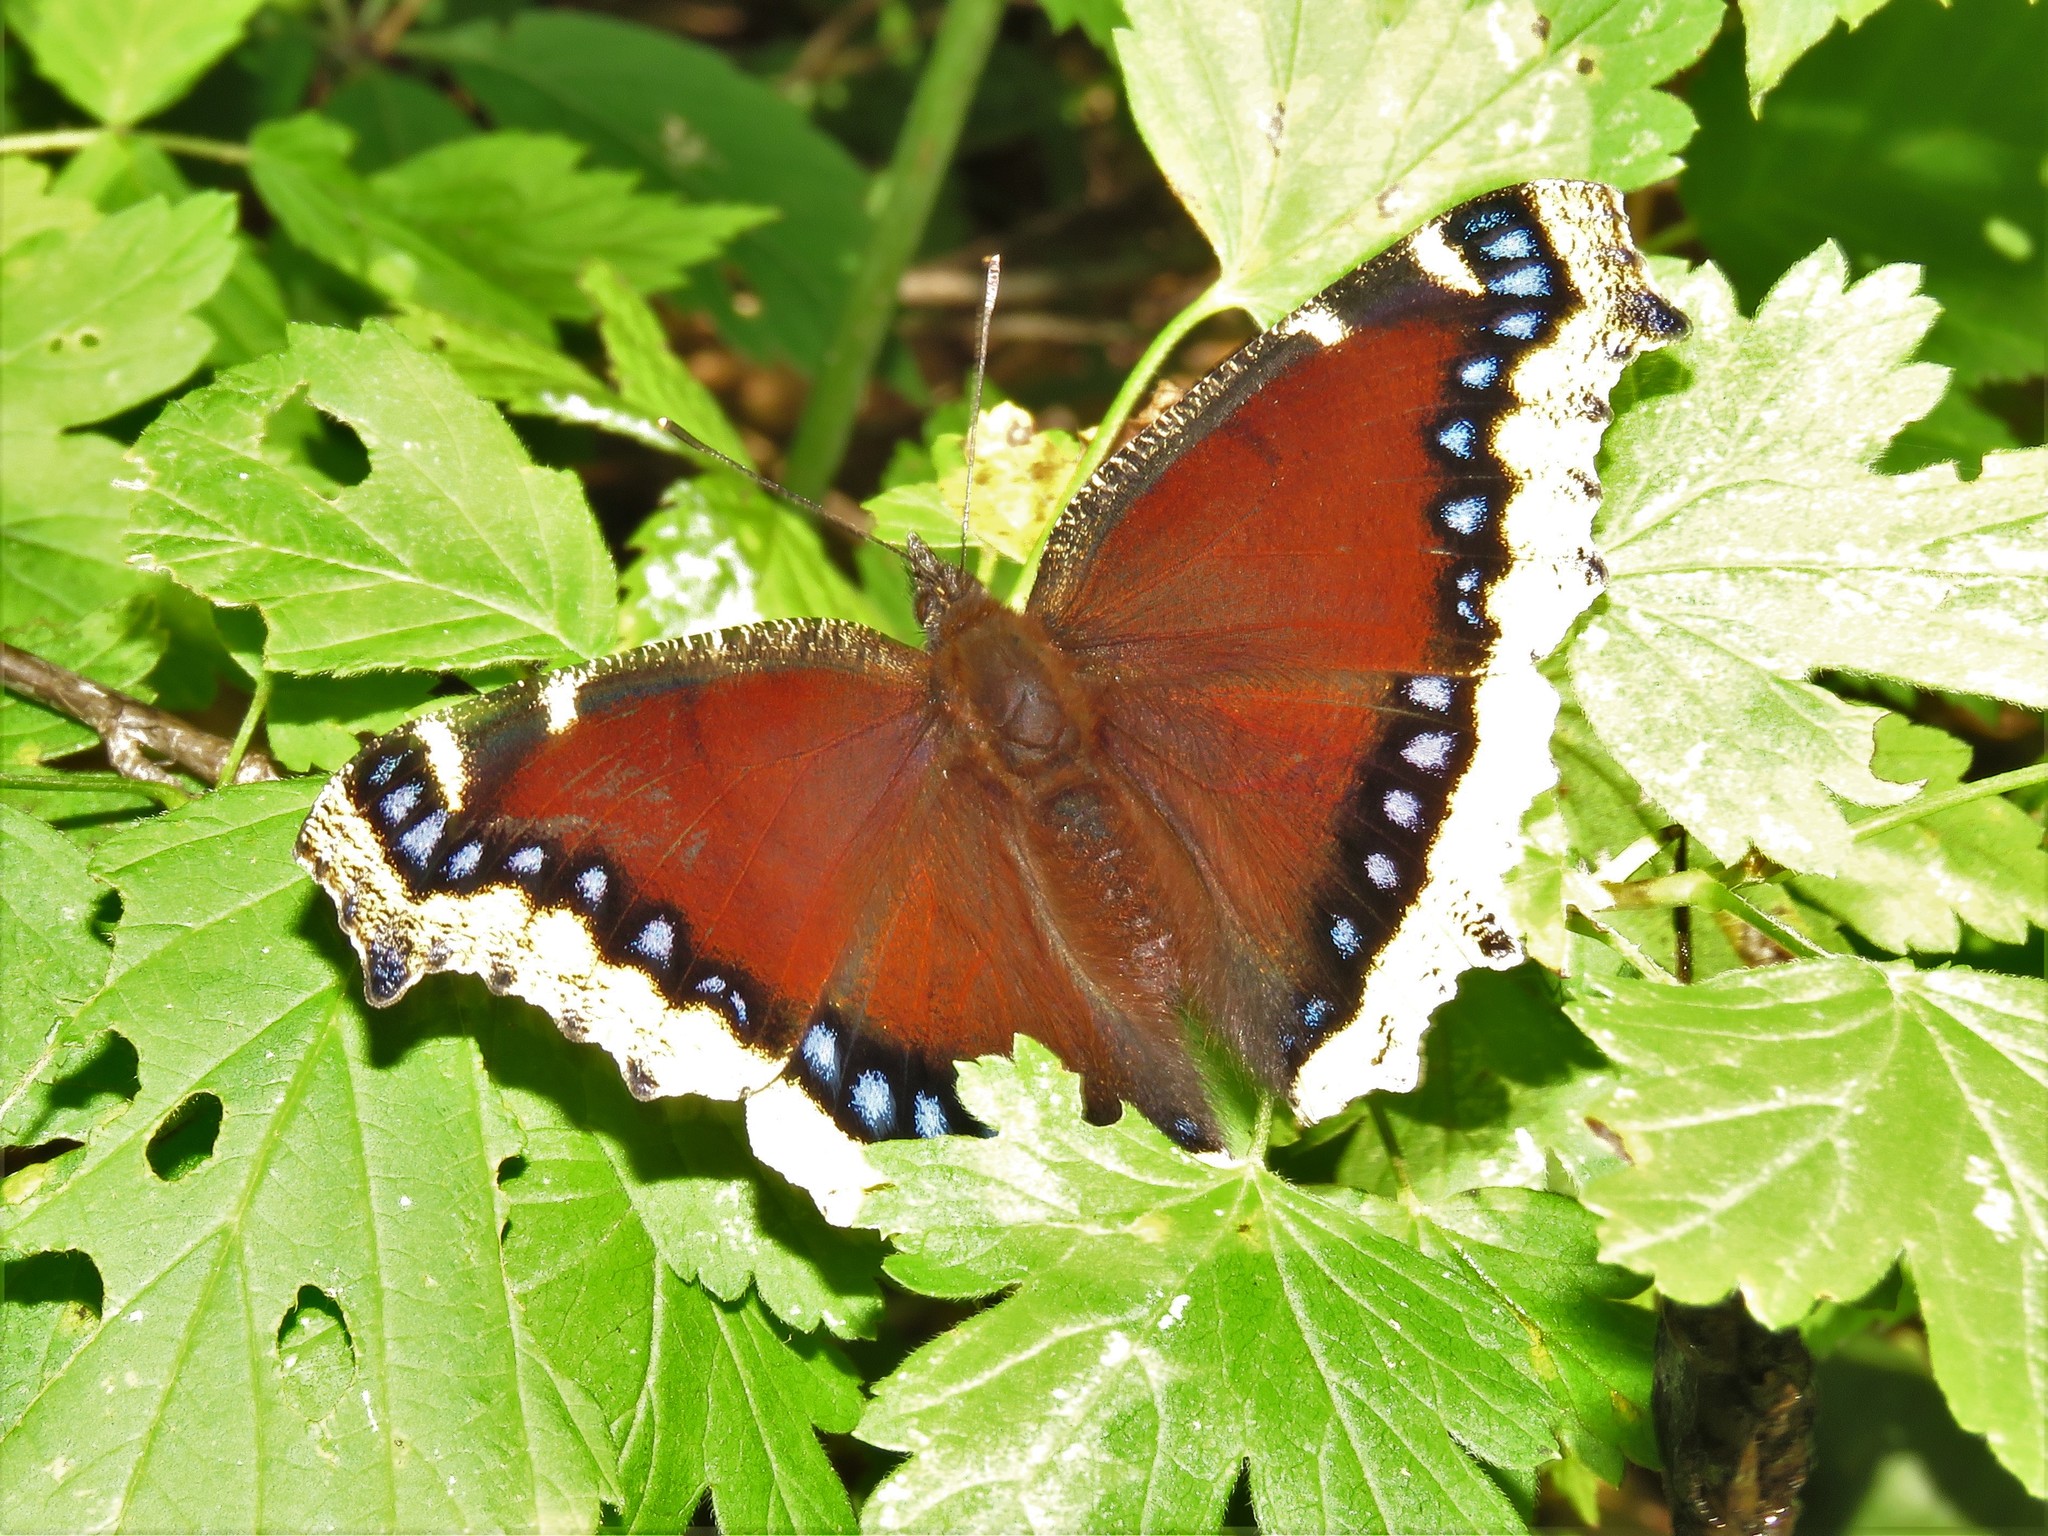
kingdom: Animalia
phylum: Arthropoda
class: Insecta
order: Lepidoptera
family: Nymphalidae
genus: Nymphalis
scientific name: Nymphalis antiopa
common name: Camberwell beauty
